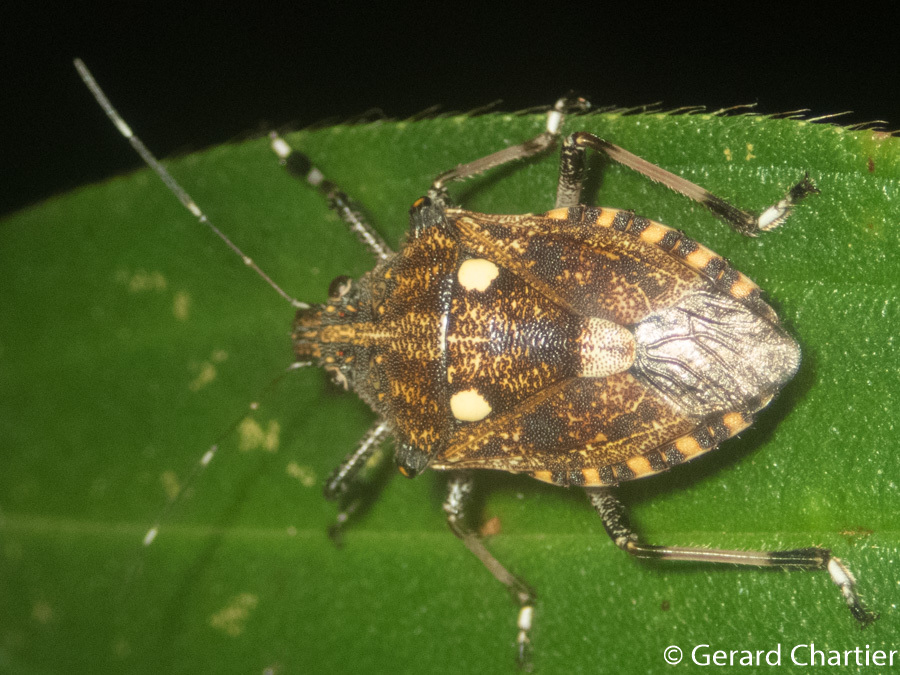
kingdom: Animalia
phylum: Arthropoda
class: Insecta
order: Hemiptera
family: Pentatomidae
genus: Dalpada
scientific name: Dalpada oculata
